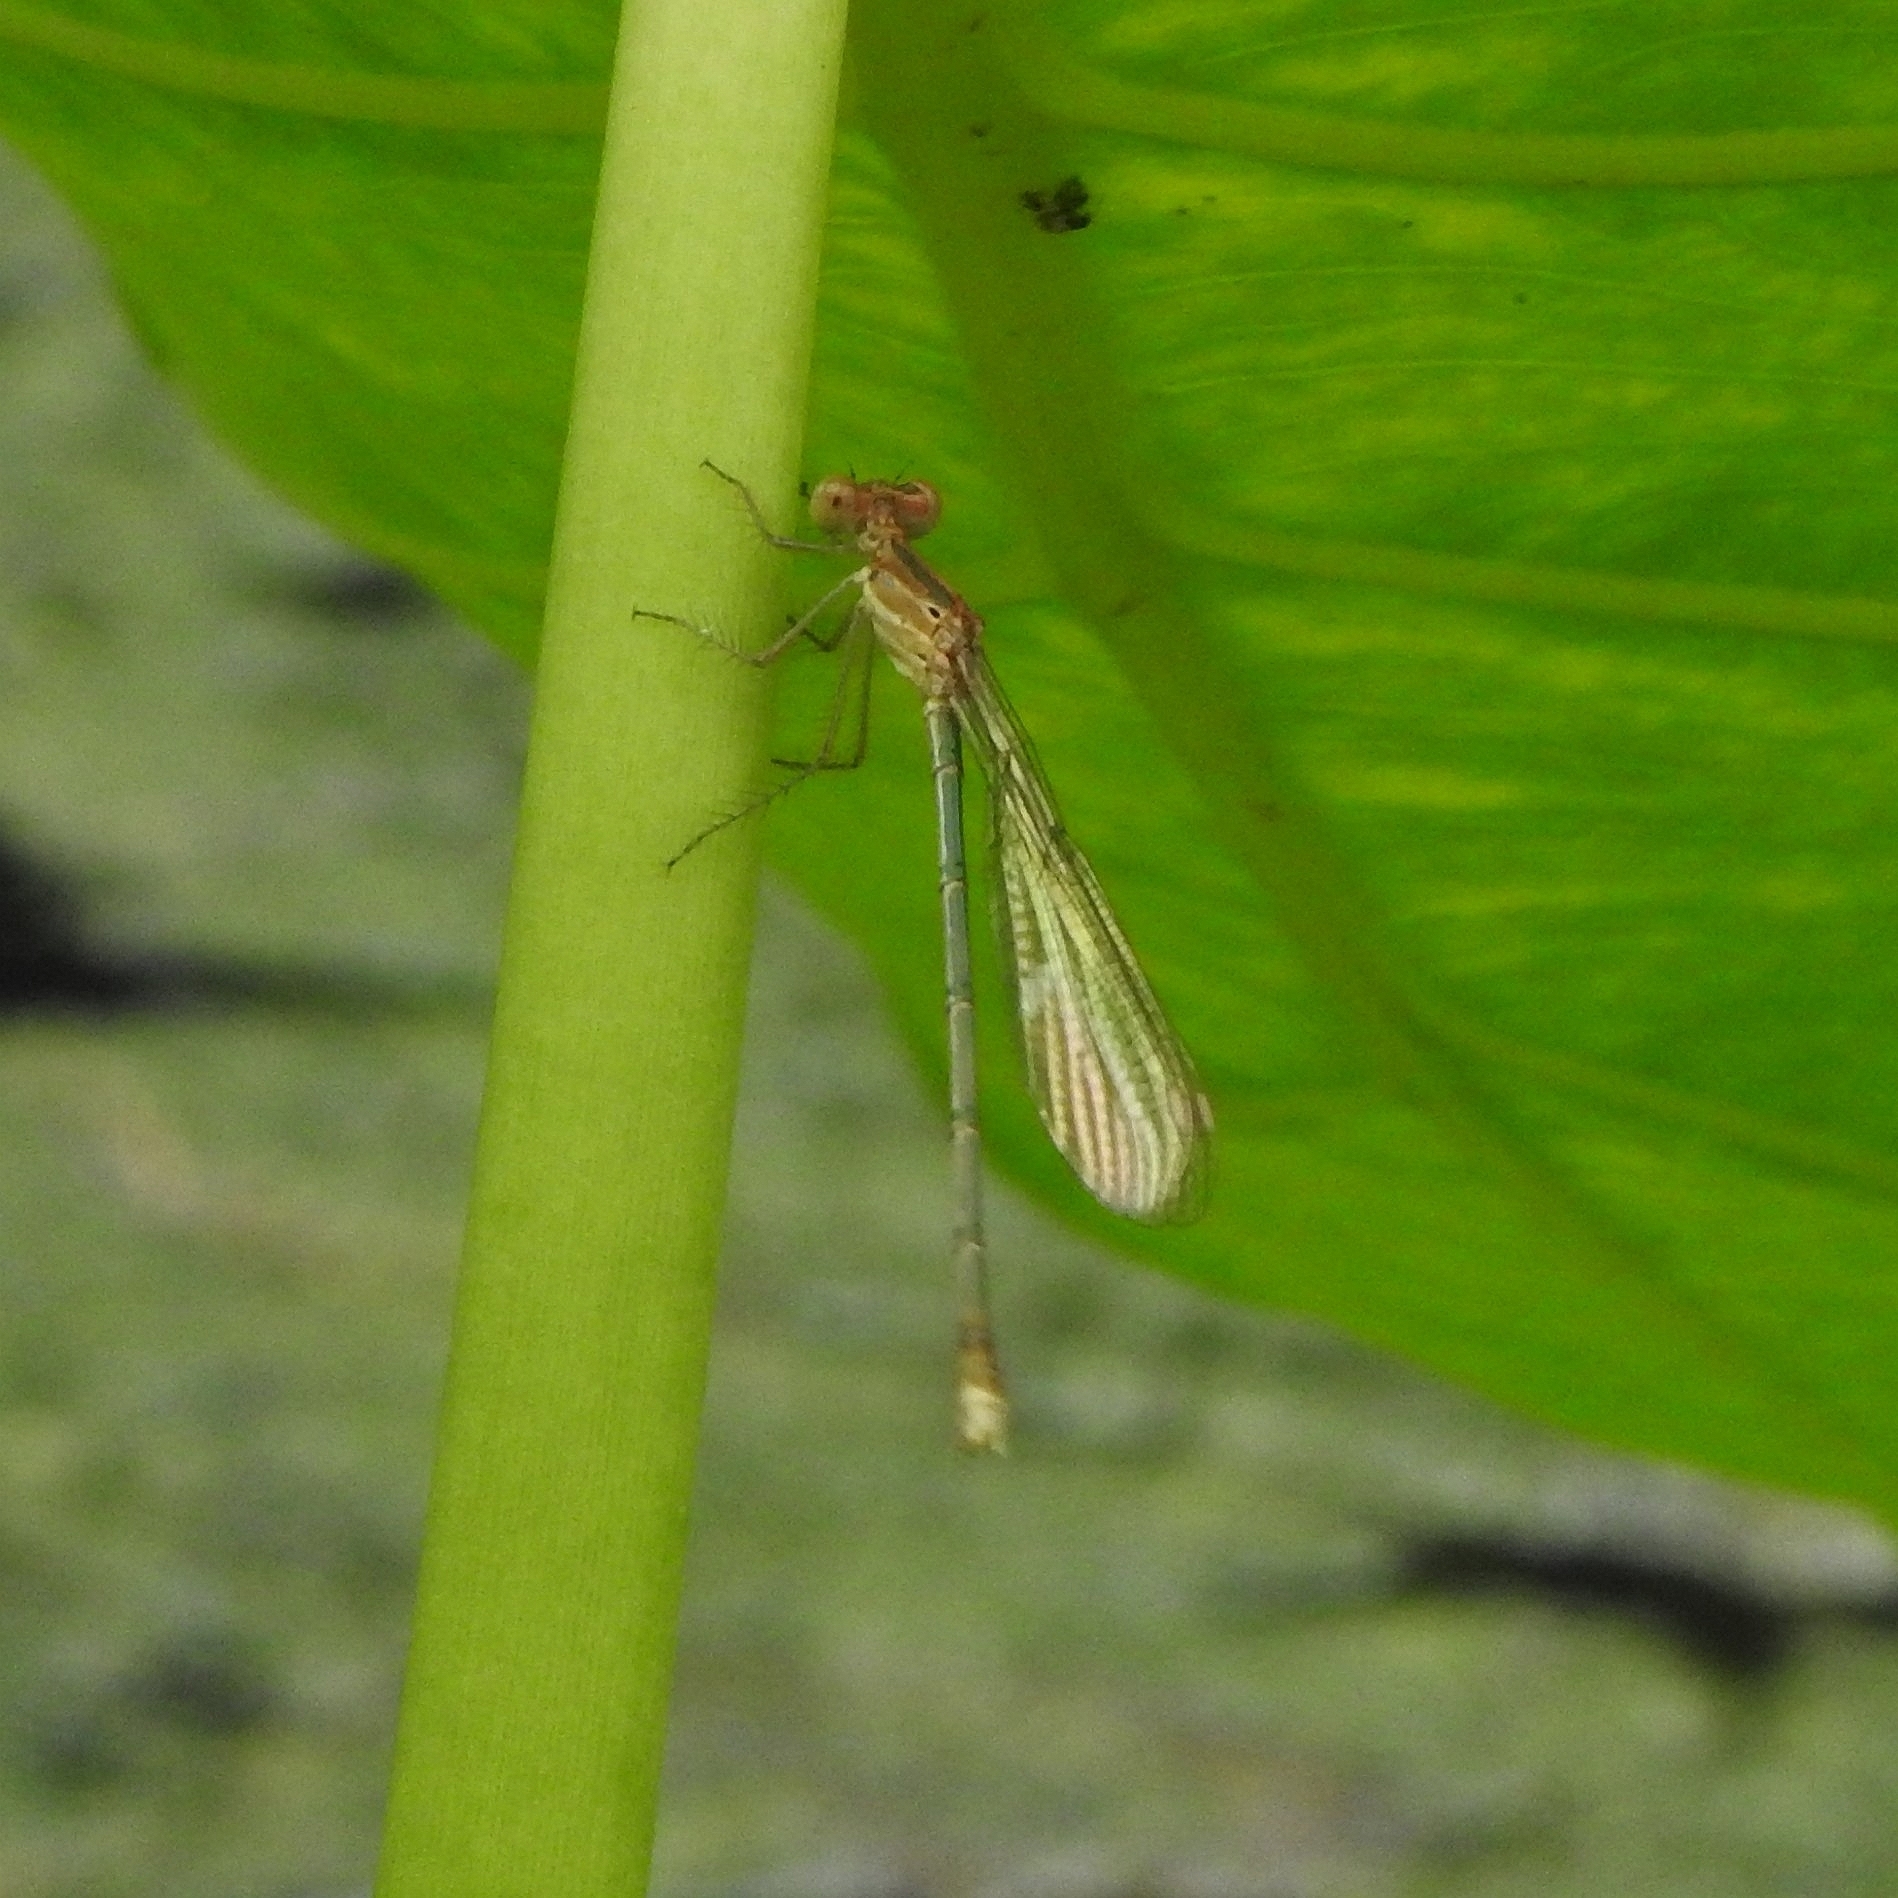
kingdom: Animalia
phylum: Arthropoda
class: Insecta
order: Odonata
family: Lestidae
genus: Lestes
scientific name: Lestes elatus
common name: Emerald spreadwing
